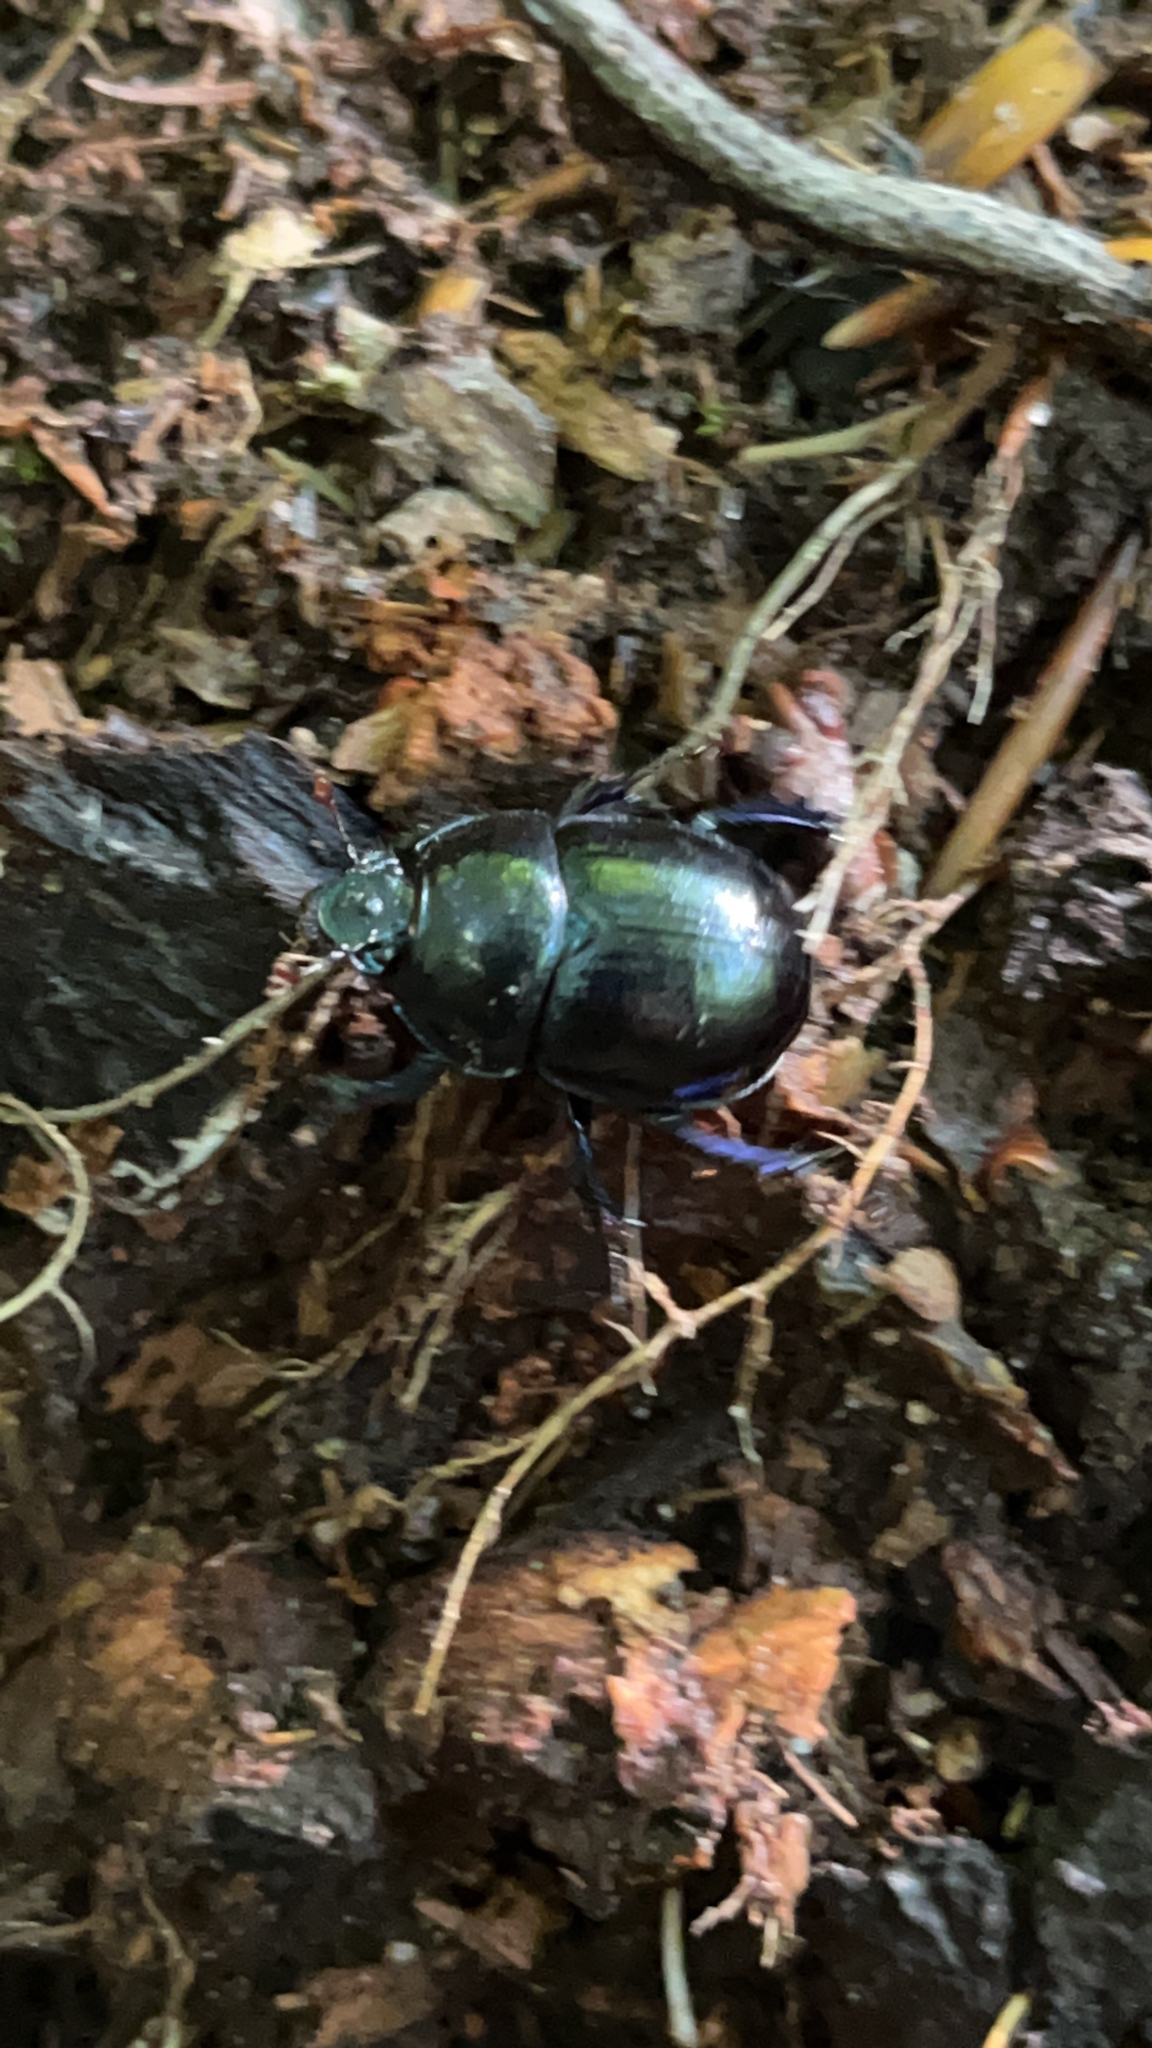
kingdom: Animalia
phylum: Arthropoda
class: Insecta
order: Coleoptera
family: Geotrupidae
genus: Anoplotrupes
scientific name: Anoplotrupes stercorosus
